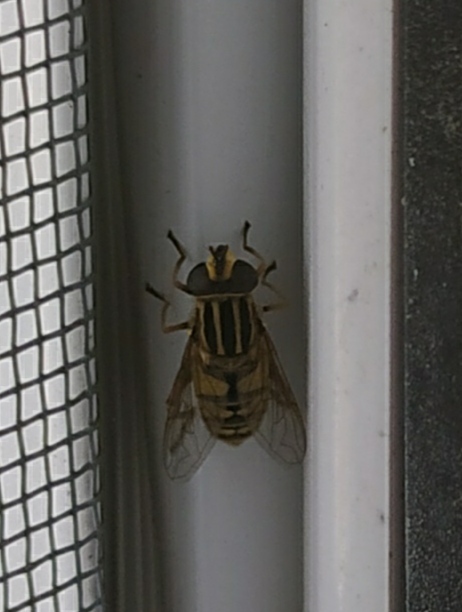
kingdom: Animalia
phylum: Arthropoda
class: Insecta
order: Diptera
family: Syrphidae
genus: Helophilus
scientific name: Helophilus pendulus
